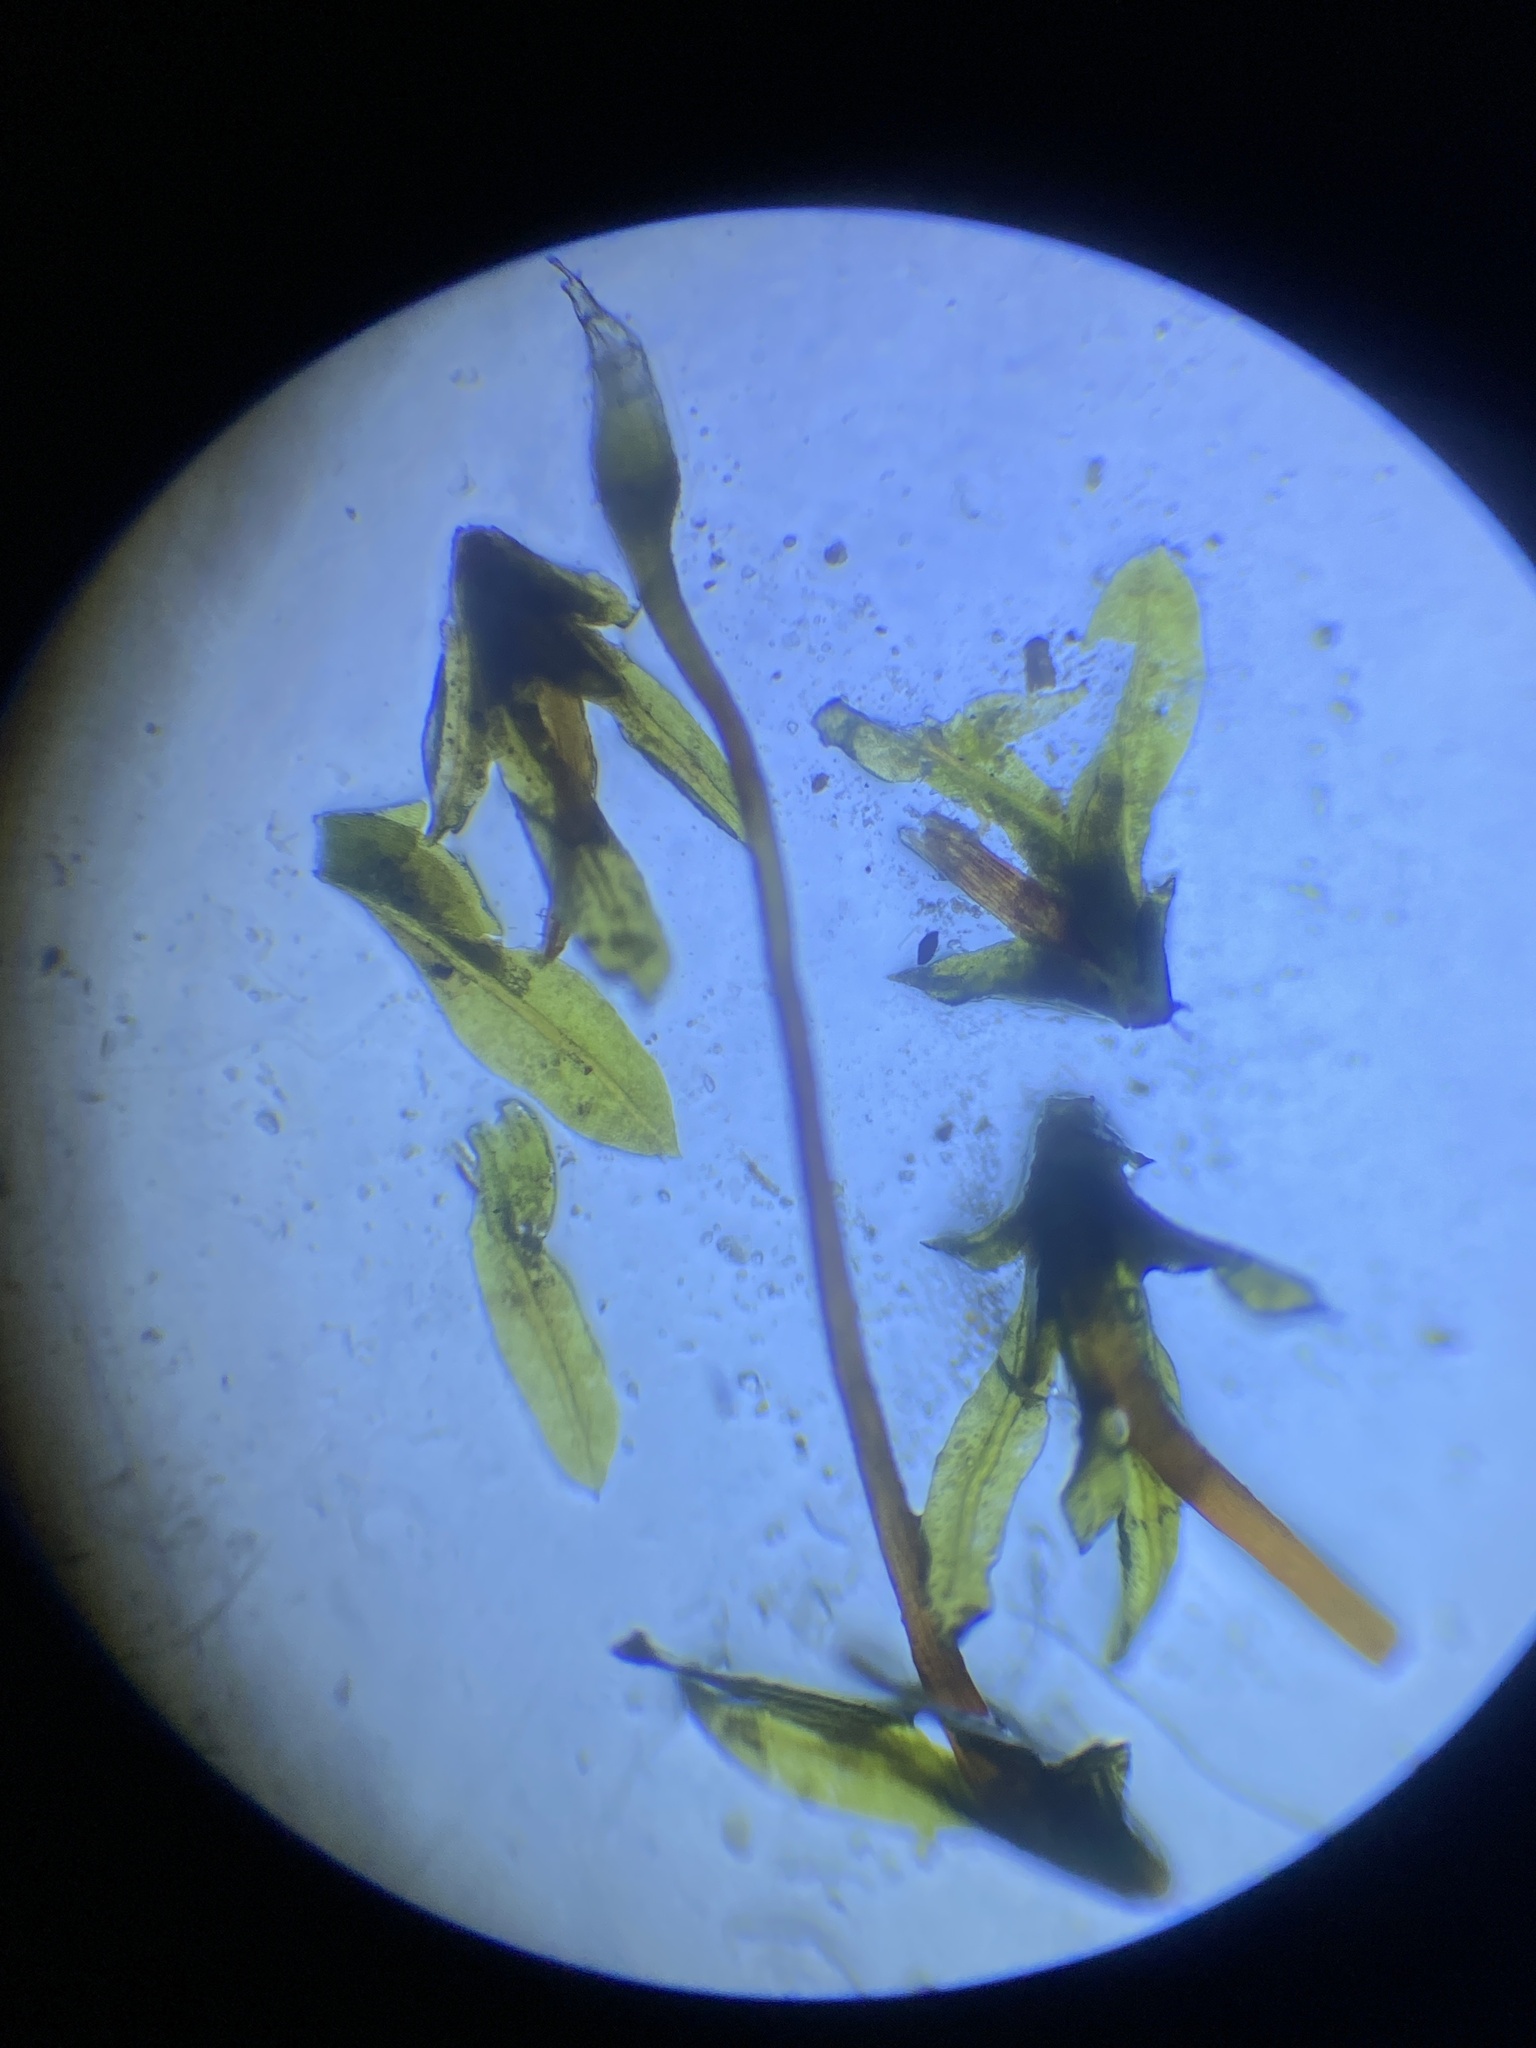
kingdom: Plantae
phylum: Bryophyta
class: Bryopsida
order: Dicranales
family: Fissidentaceae
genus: Fissidens
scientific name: Fissidens exilis
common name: Pygmy pocket moss
